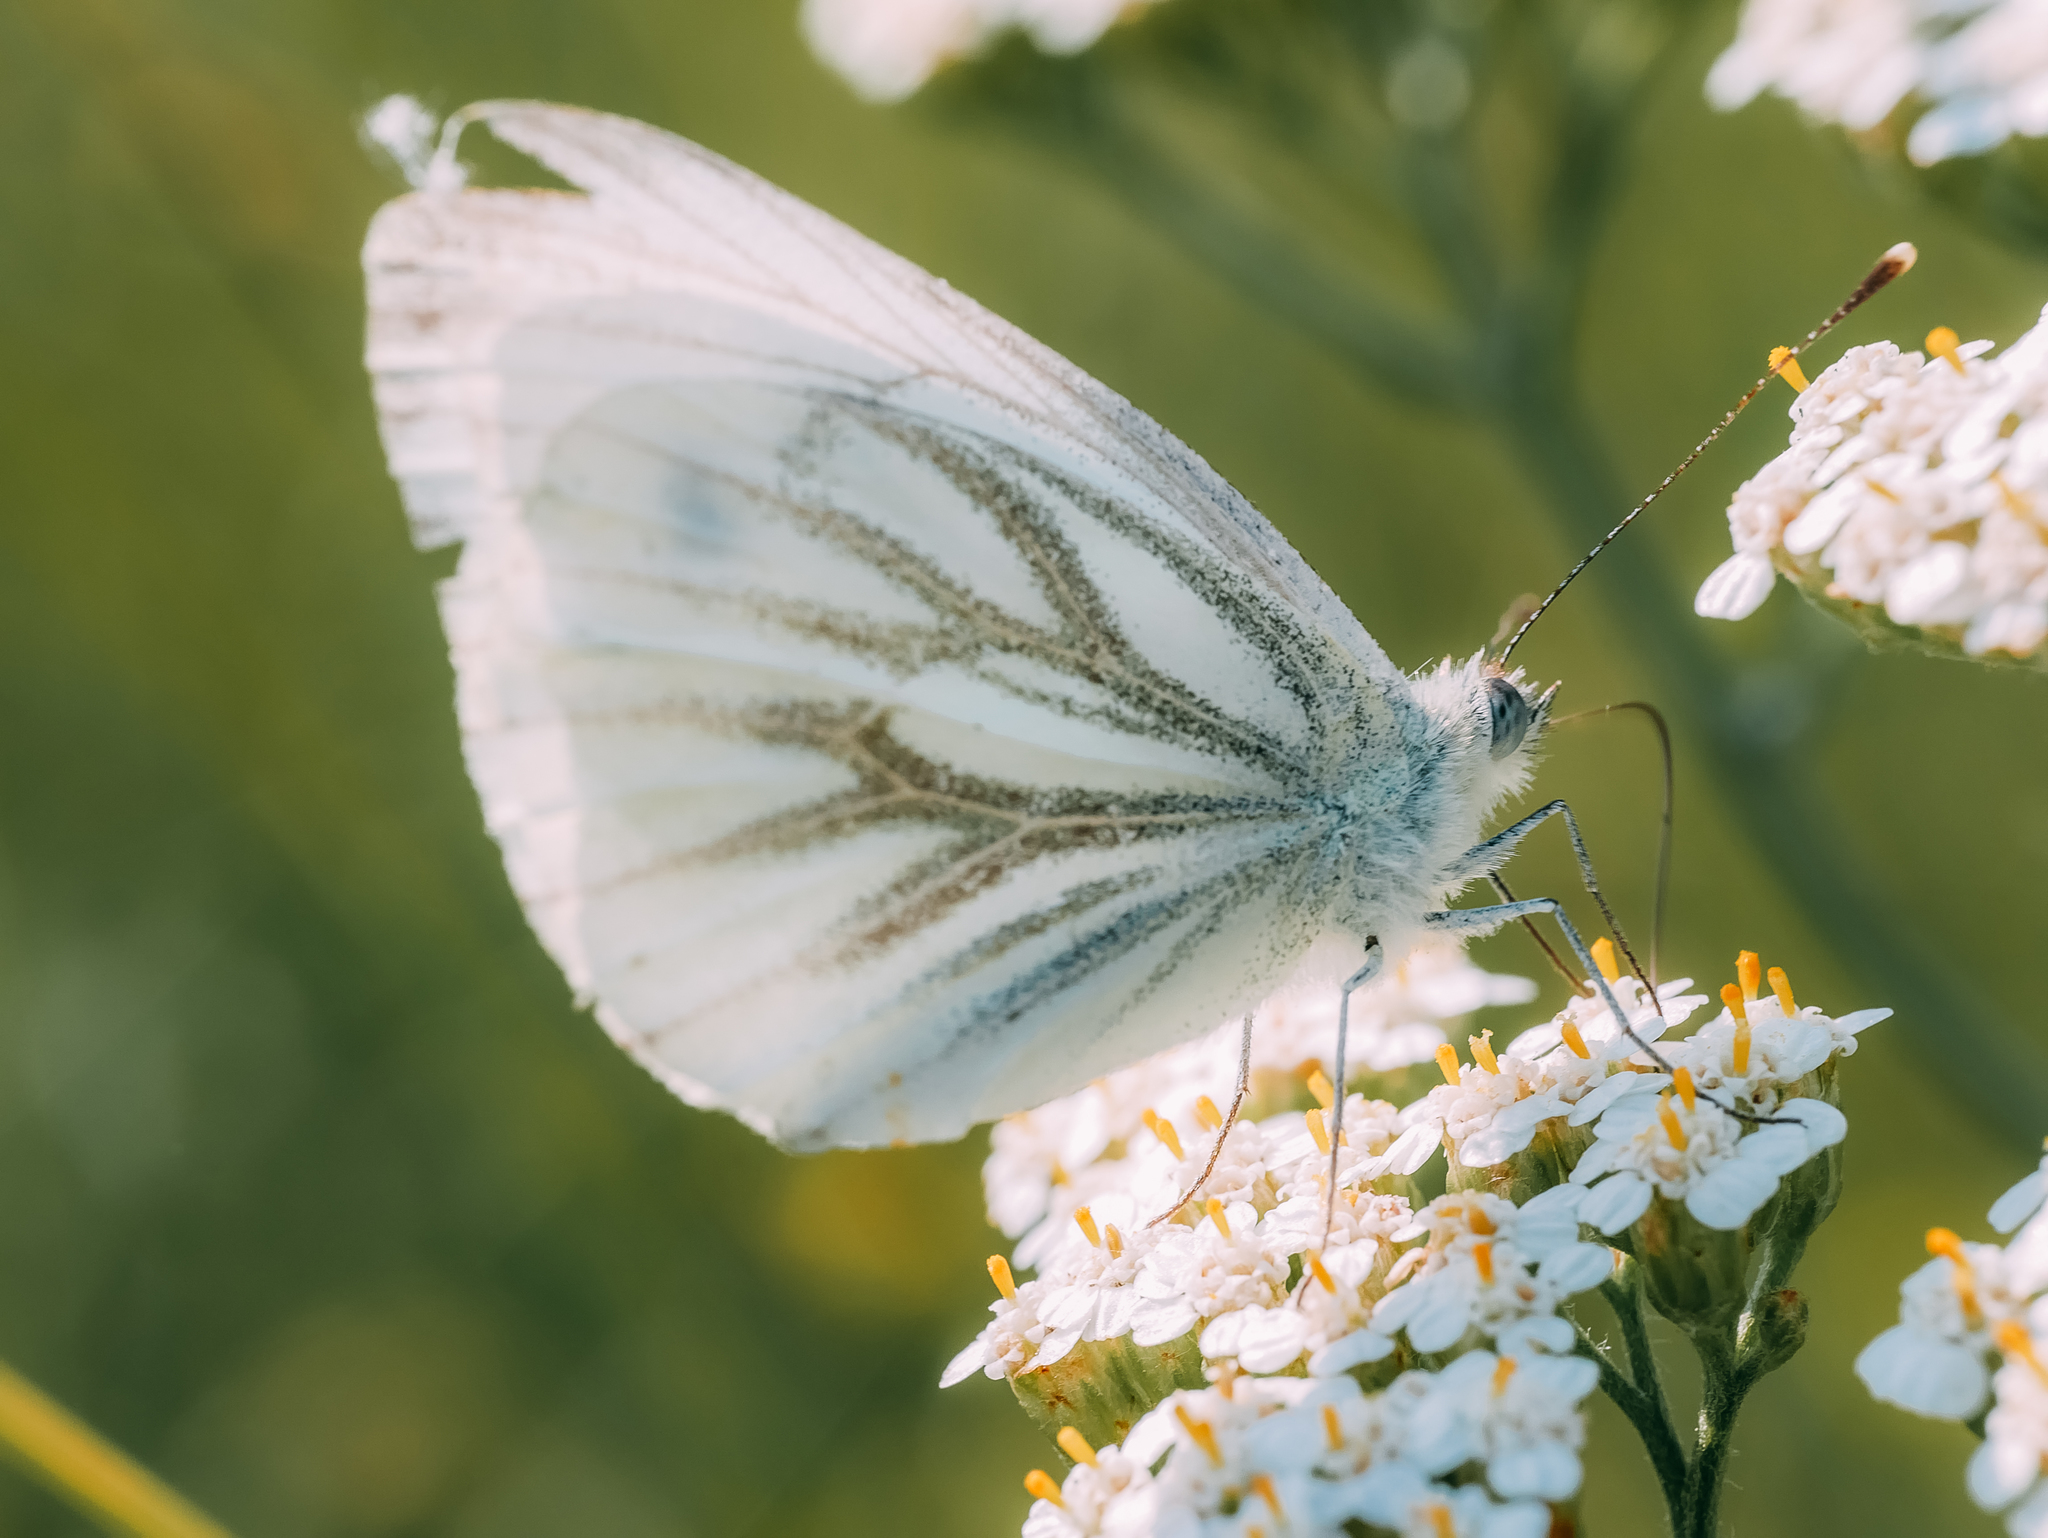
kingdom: Animalia
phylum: Arthropoda
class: Insecta
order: Lepidoptera
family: Pieridae
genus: Pieris
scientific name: Pieris napi
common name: Green-veined white
